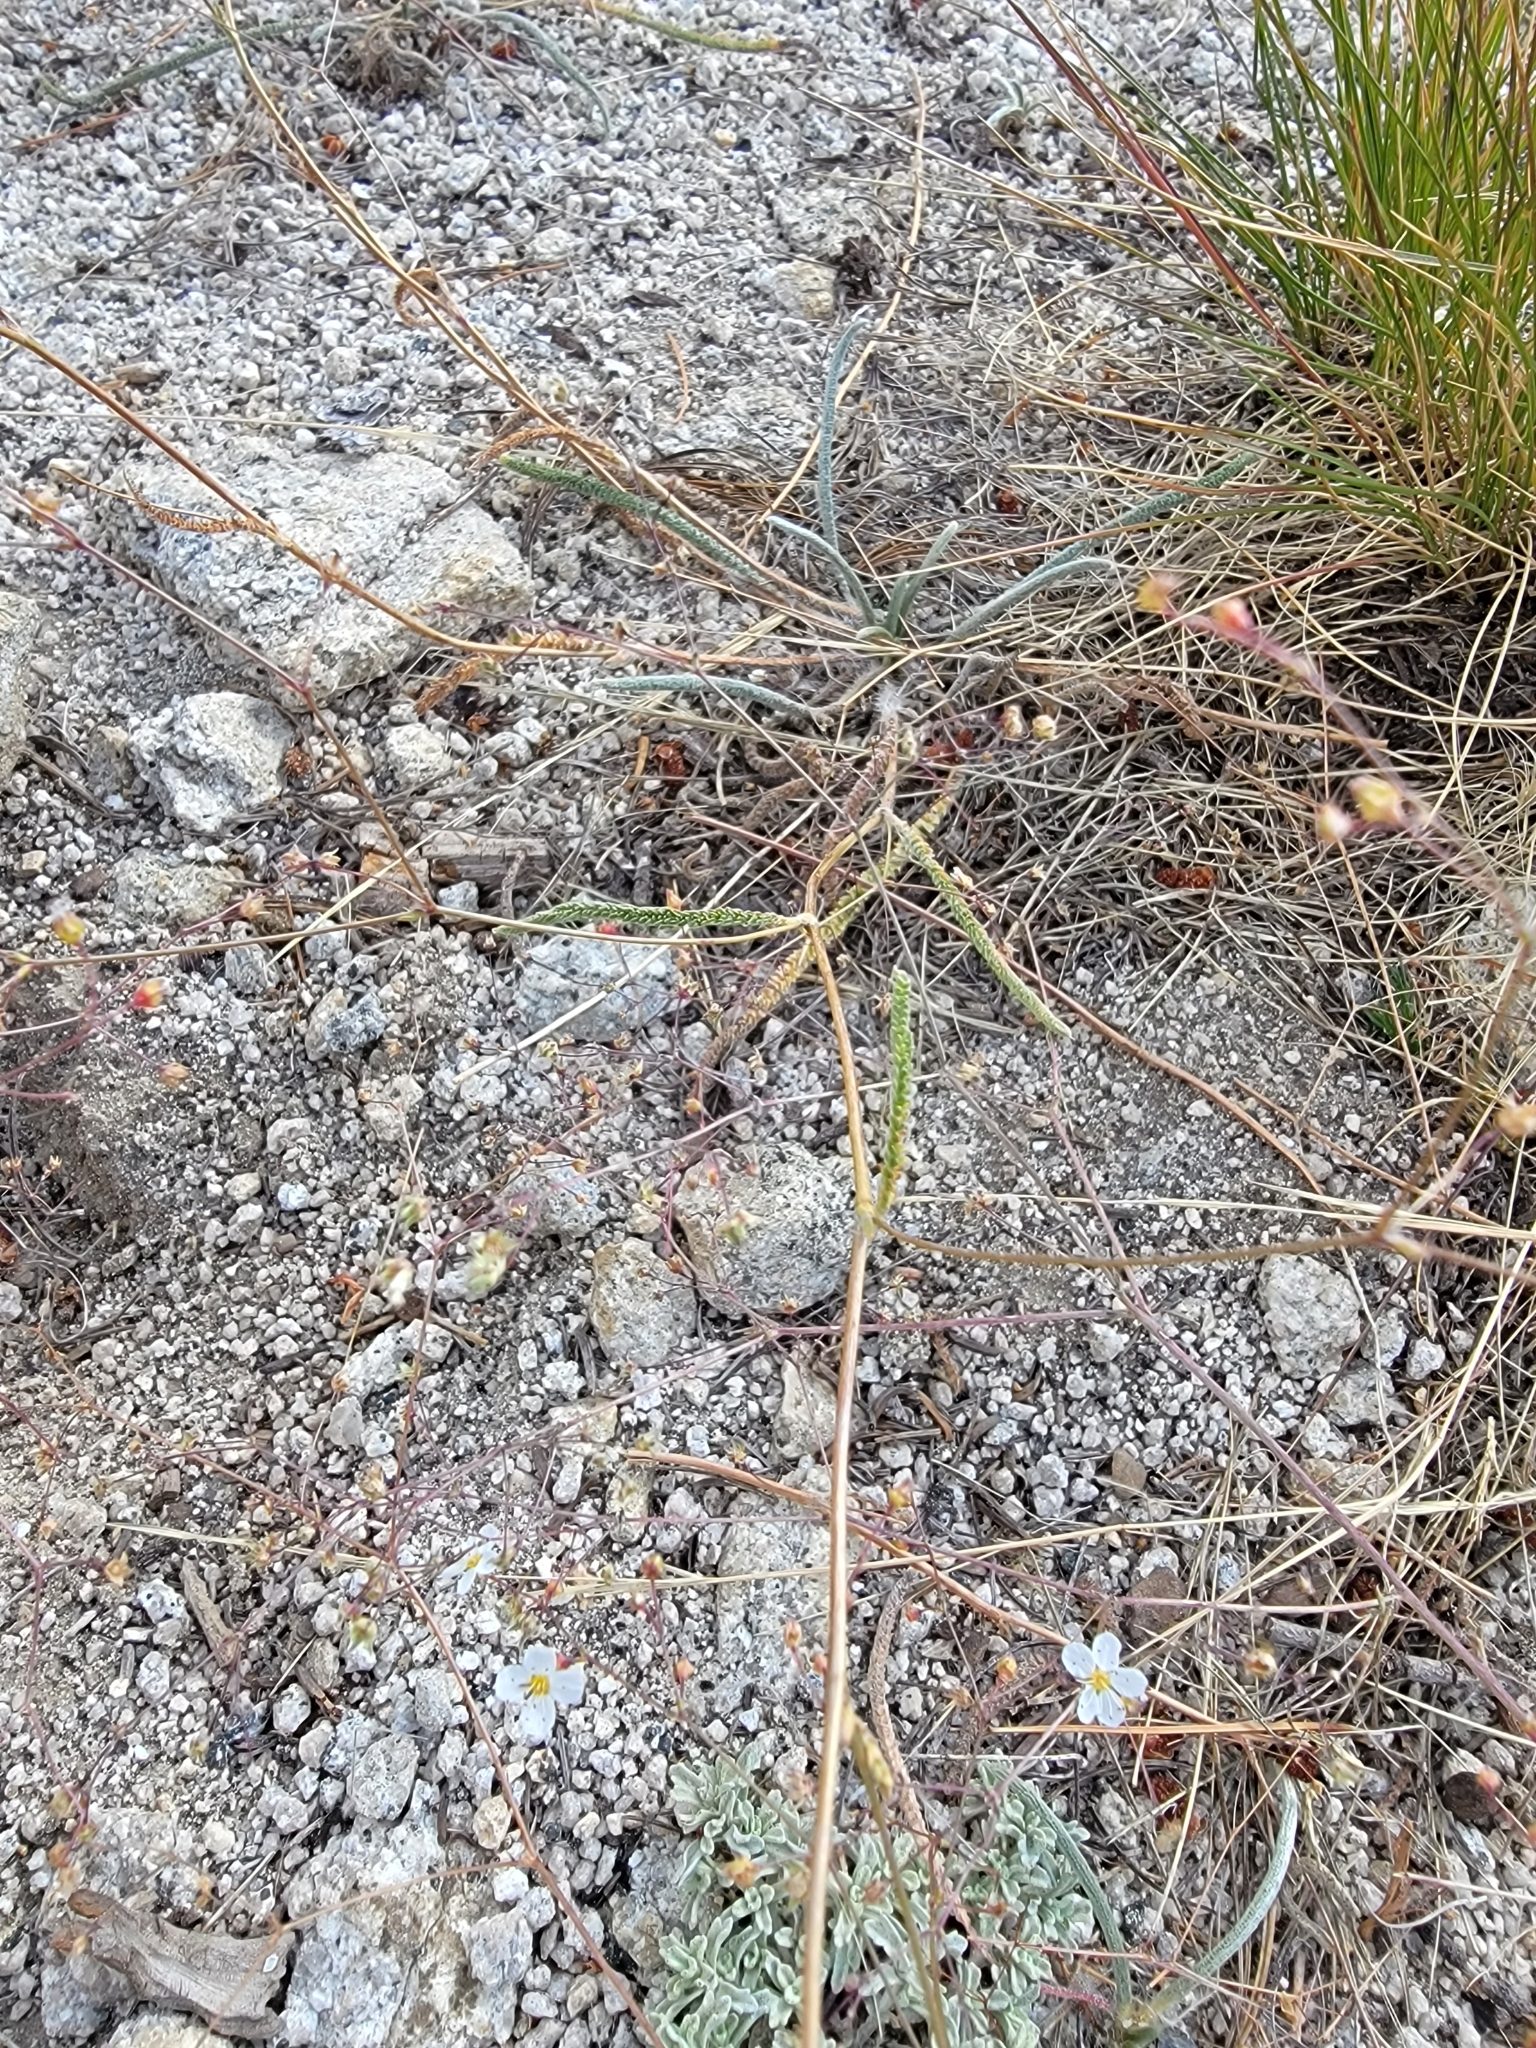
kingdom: Plantae
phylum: Tracheophyta
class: Magnoliopsida
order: Rosales
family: Rosaceae
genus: Potentilla
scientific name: Potentilla santolinoides
